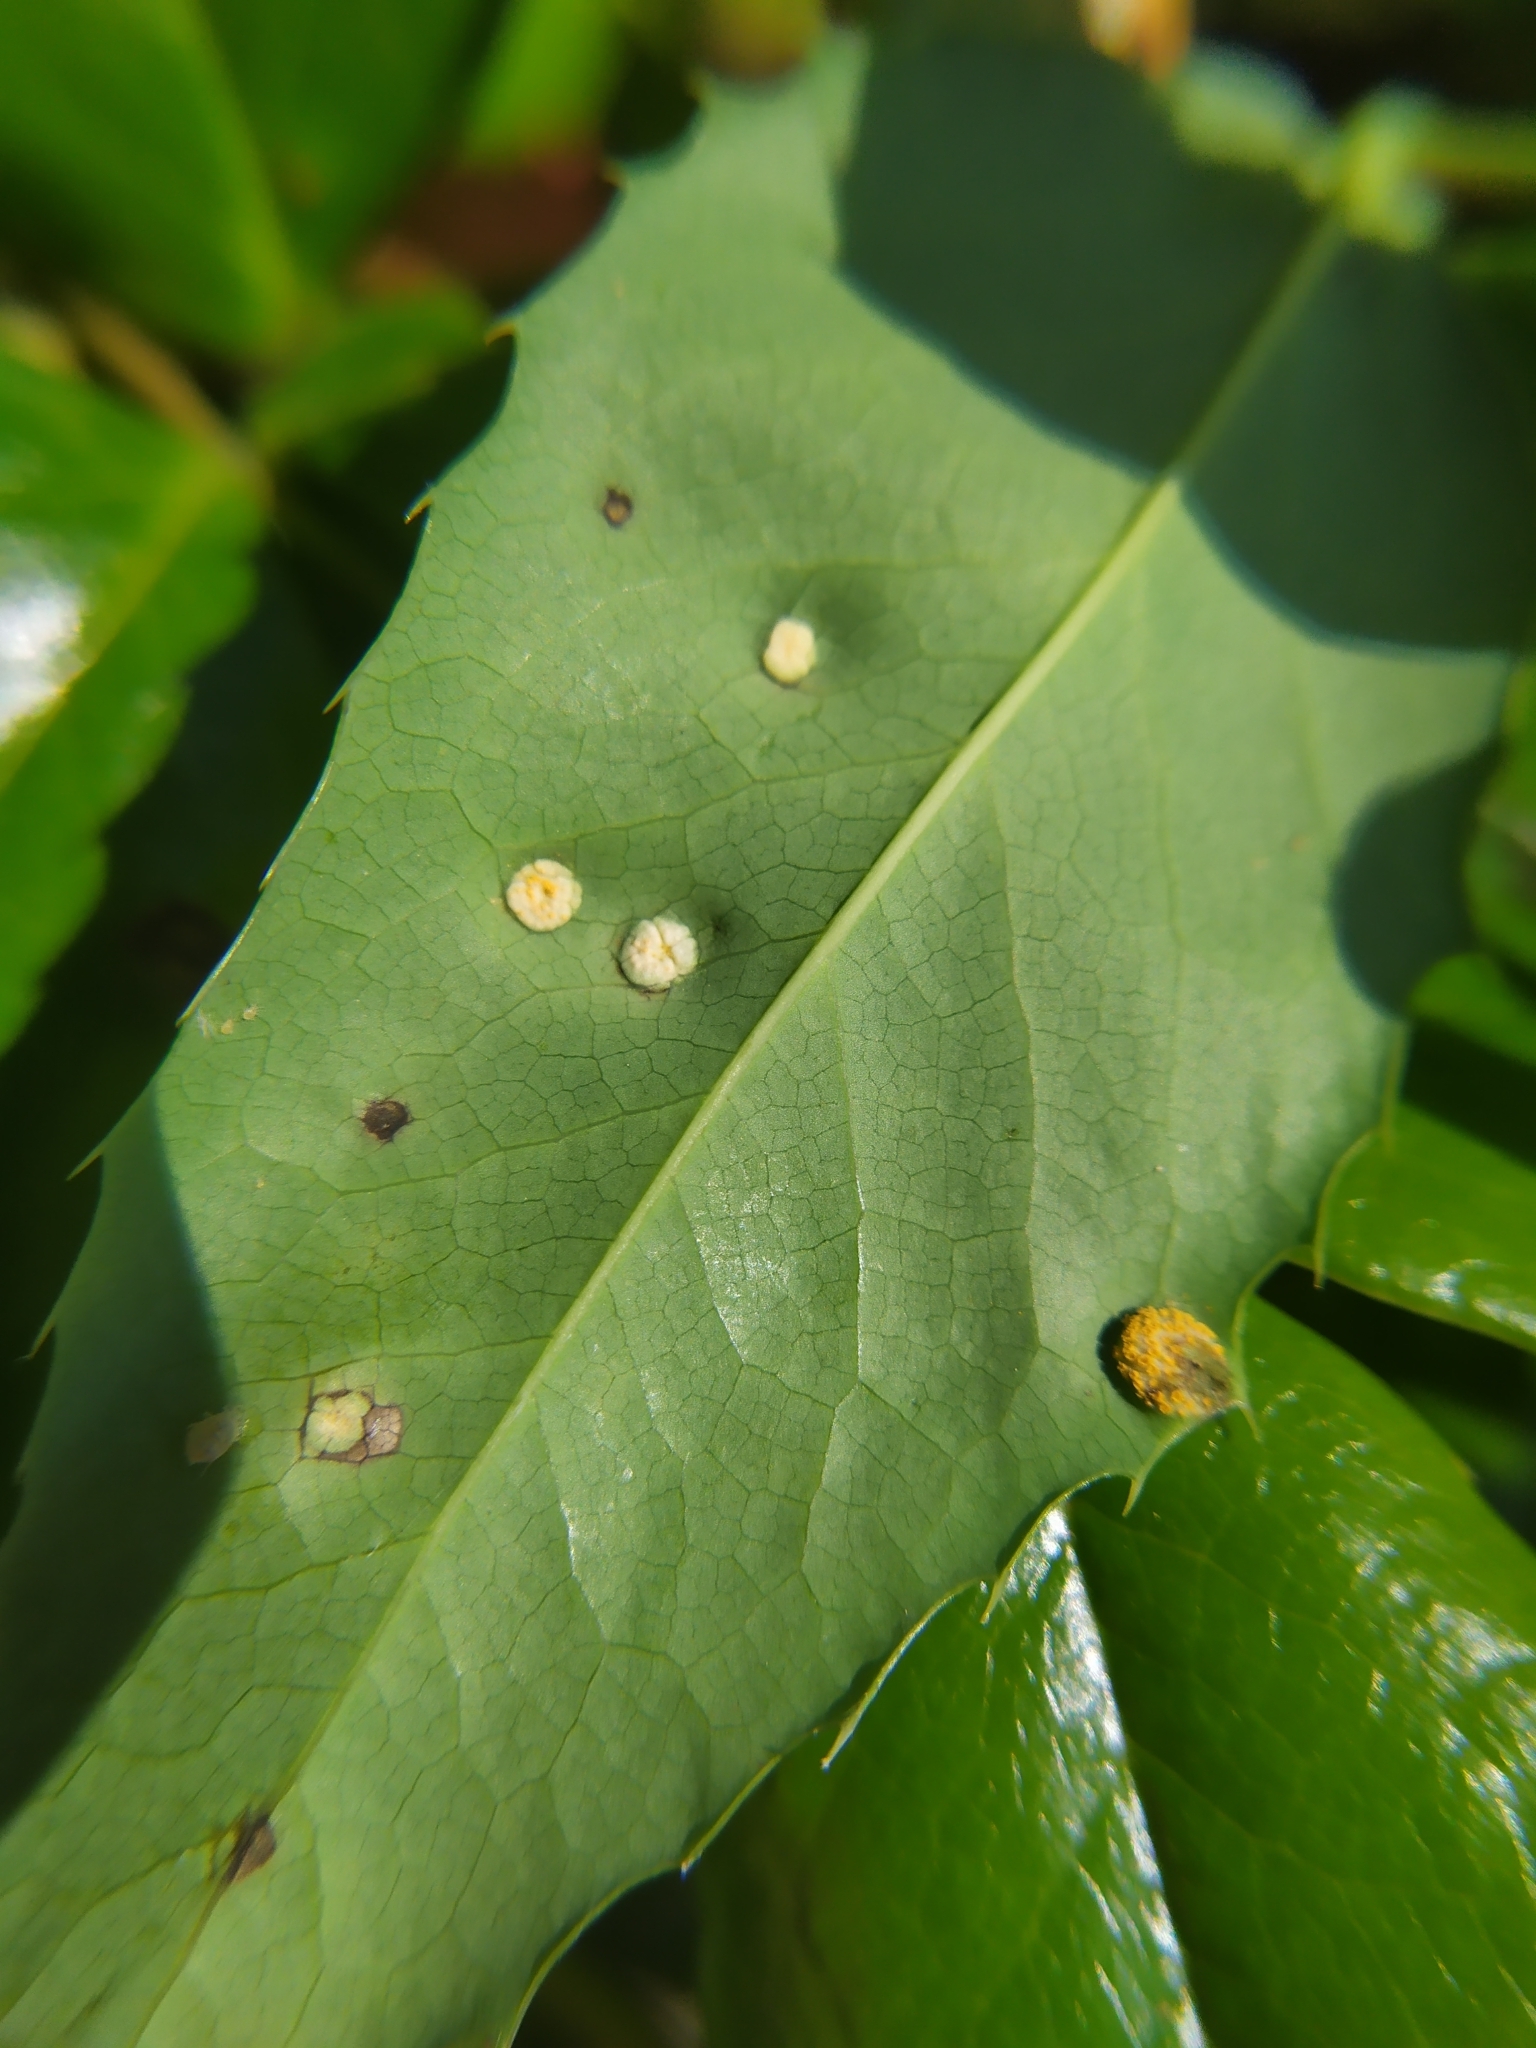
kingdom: Fungi
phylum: Basidiomycota
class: Pucciniomycetes
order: Pucciniales
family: Pucciniaceae
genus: Cumminsiella
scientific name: Cumminsiella mirabilissima
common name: Mahonia rust
